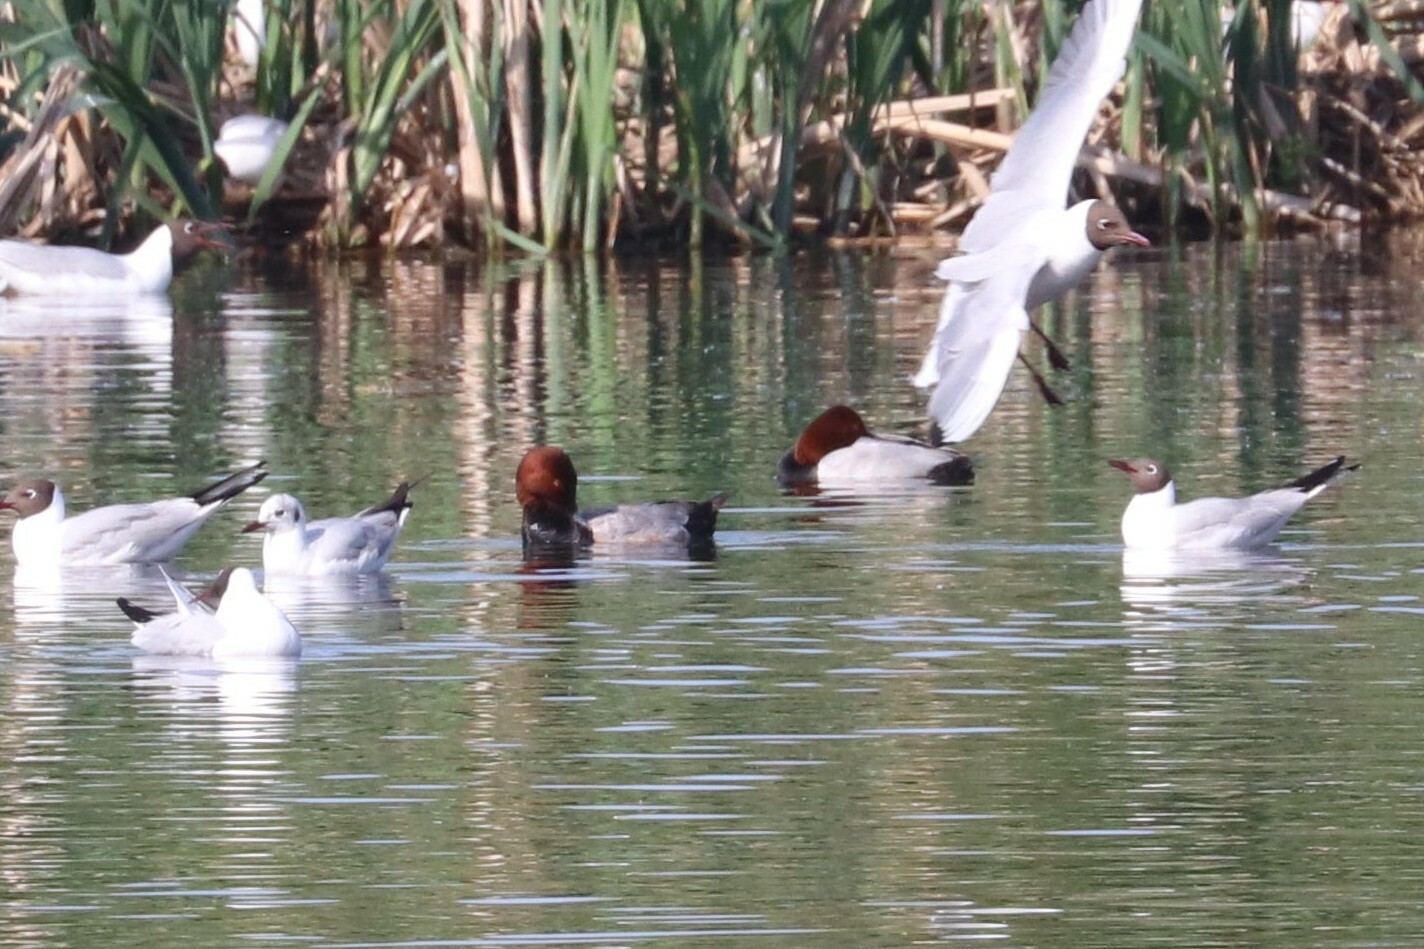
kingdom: Animalia
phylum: Chordata
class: Aves
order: Anseriformes
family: Anatidae
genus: Aythya
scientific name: Aythya ferina
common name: Common pochard
